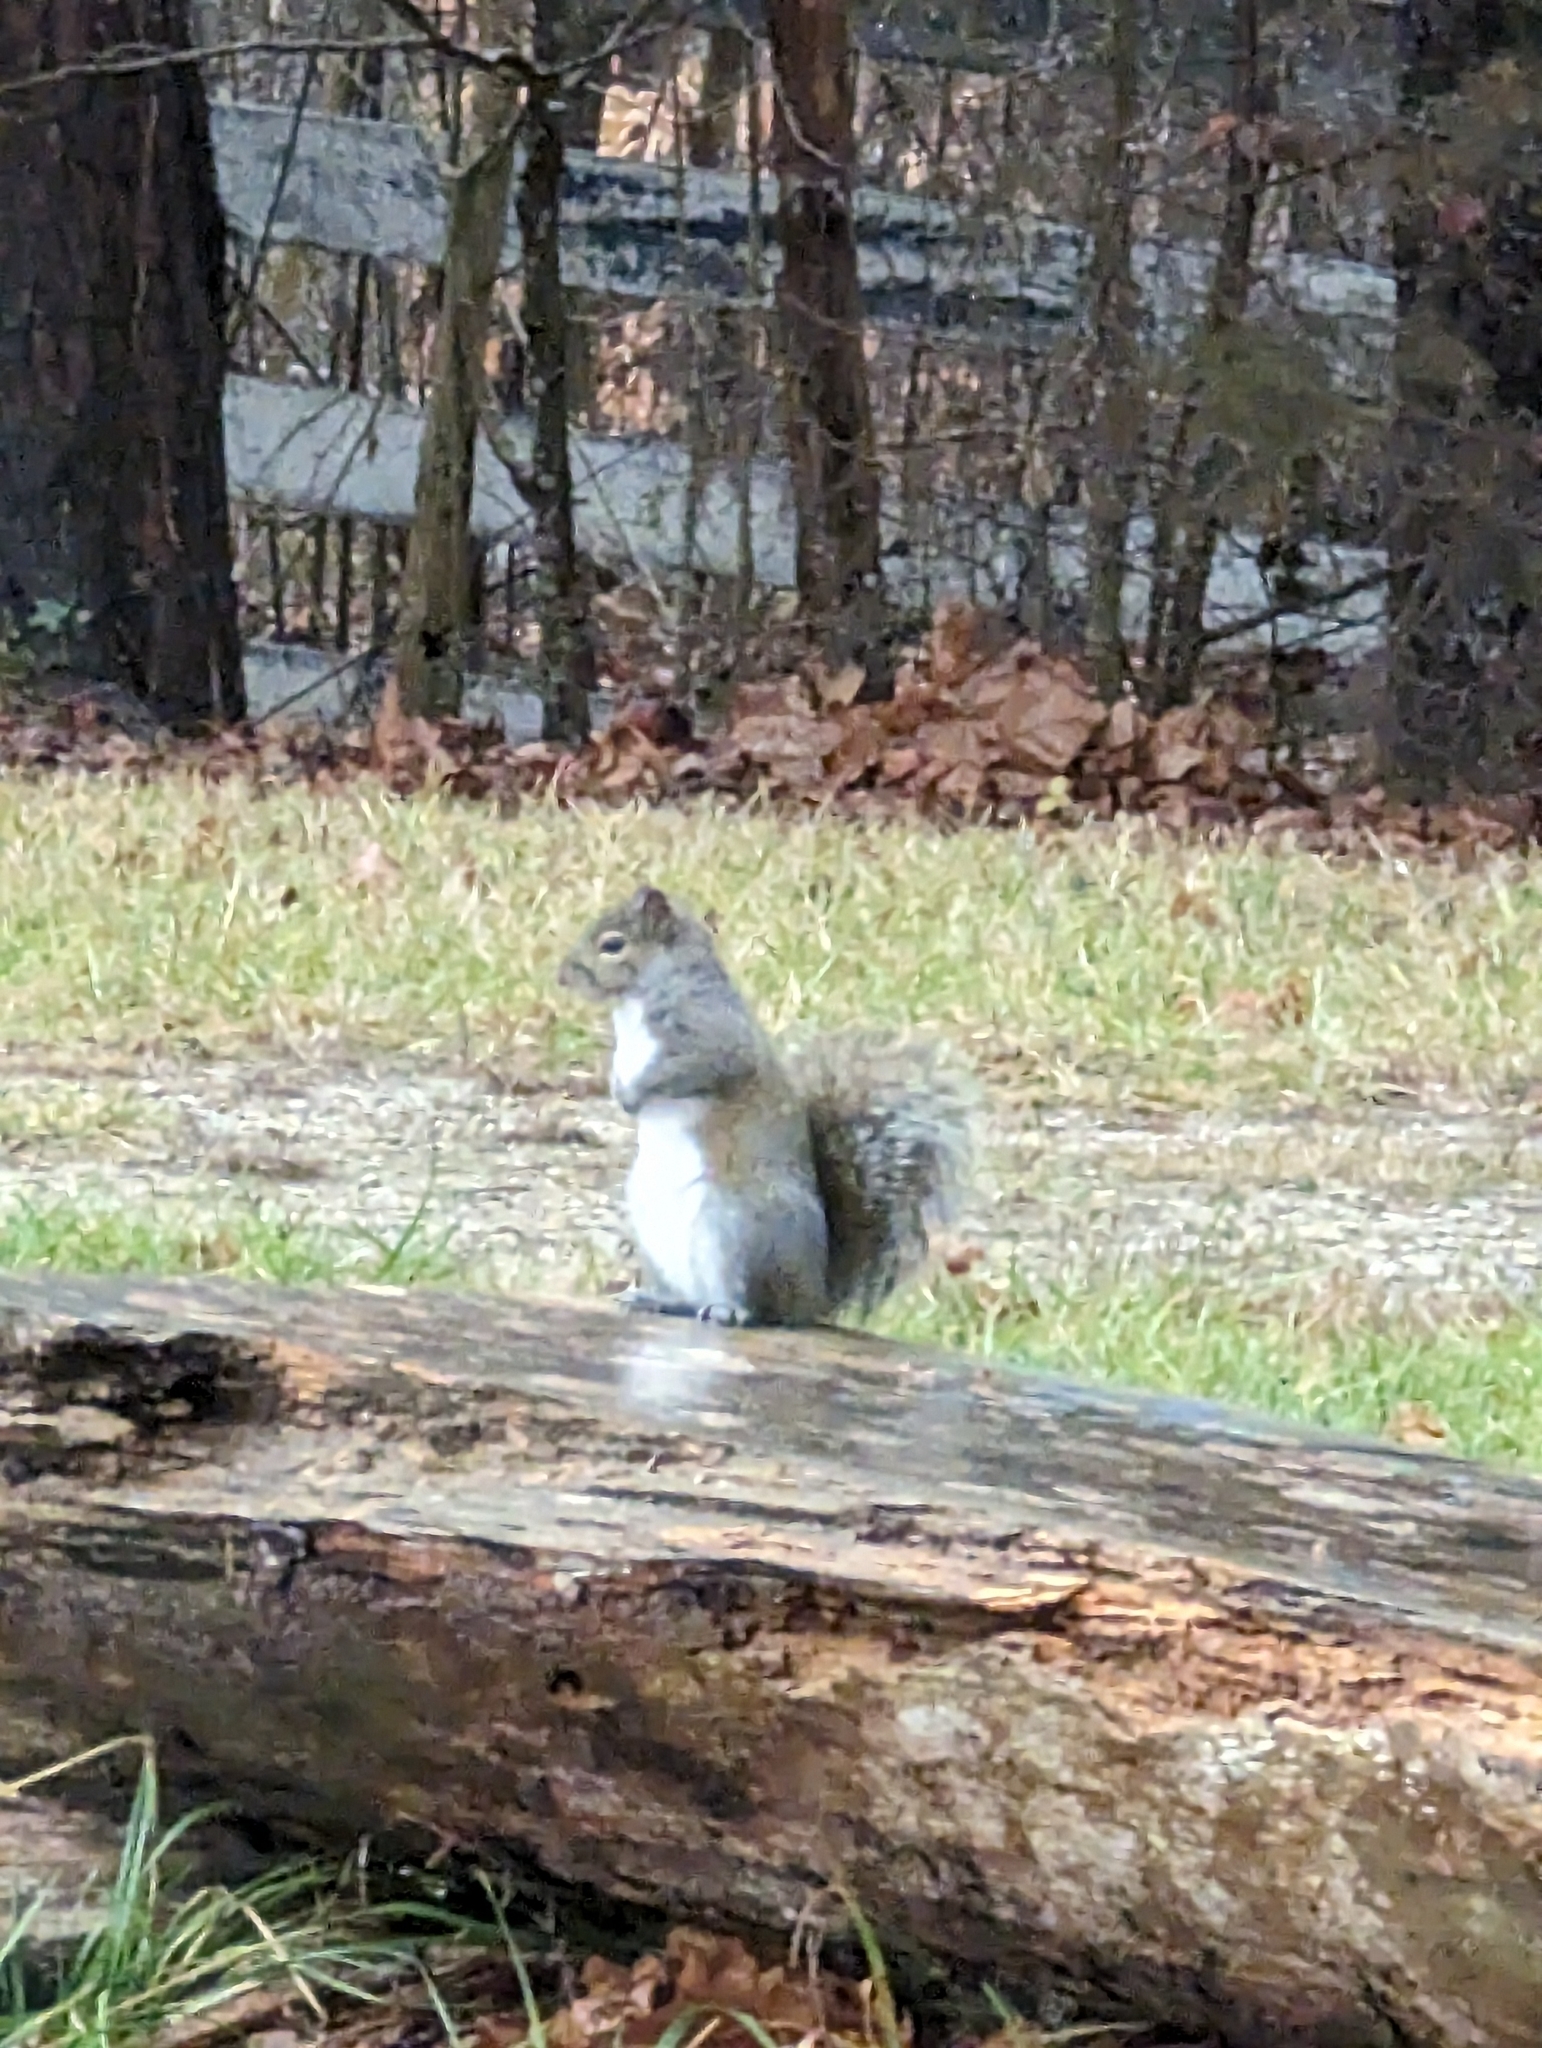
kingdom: Animalia
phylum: Chordata
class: Mammalia
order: Rodentia
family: Sciuridae
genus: Sciurus
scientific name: Sciurus carolinensis
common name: Eastern gray squirrel
